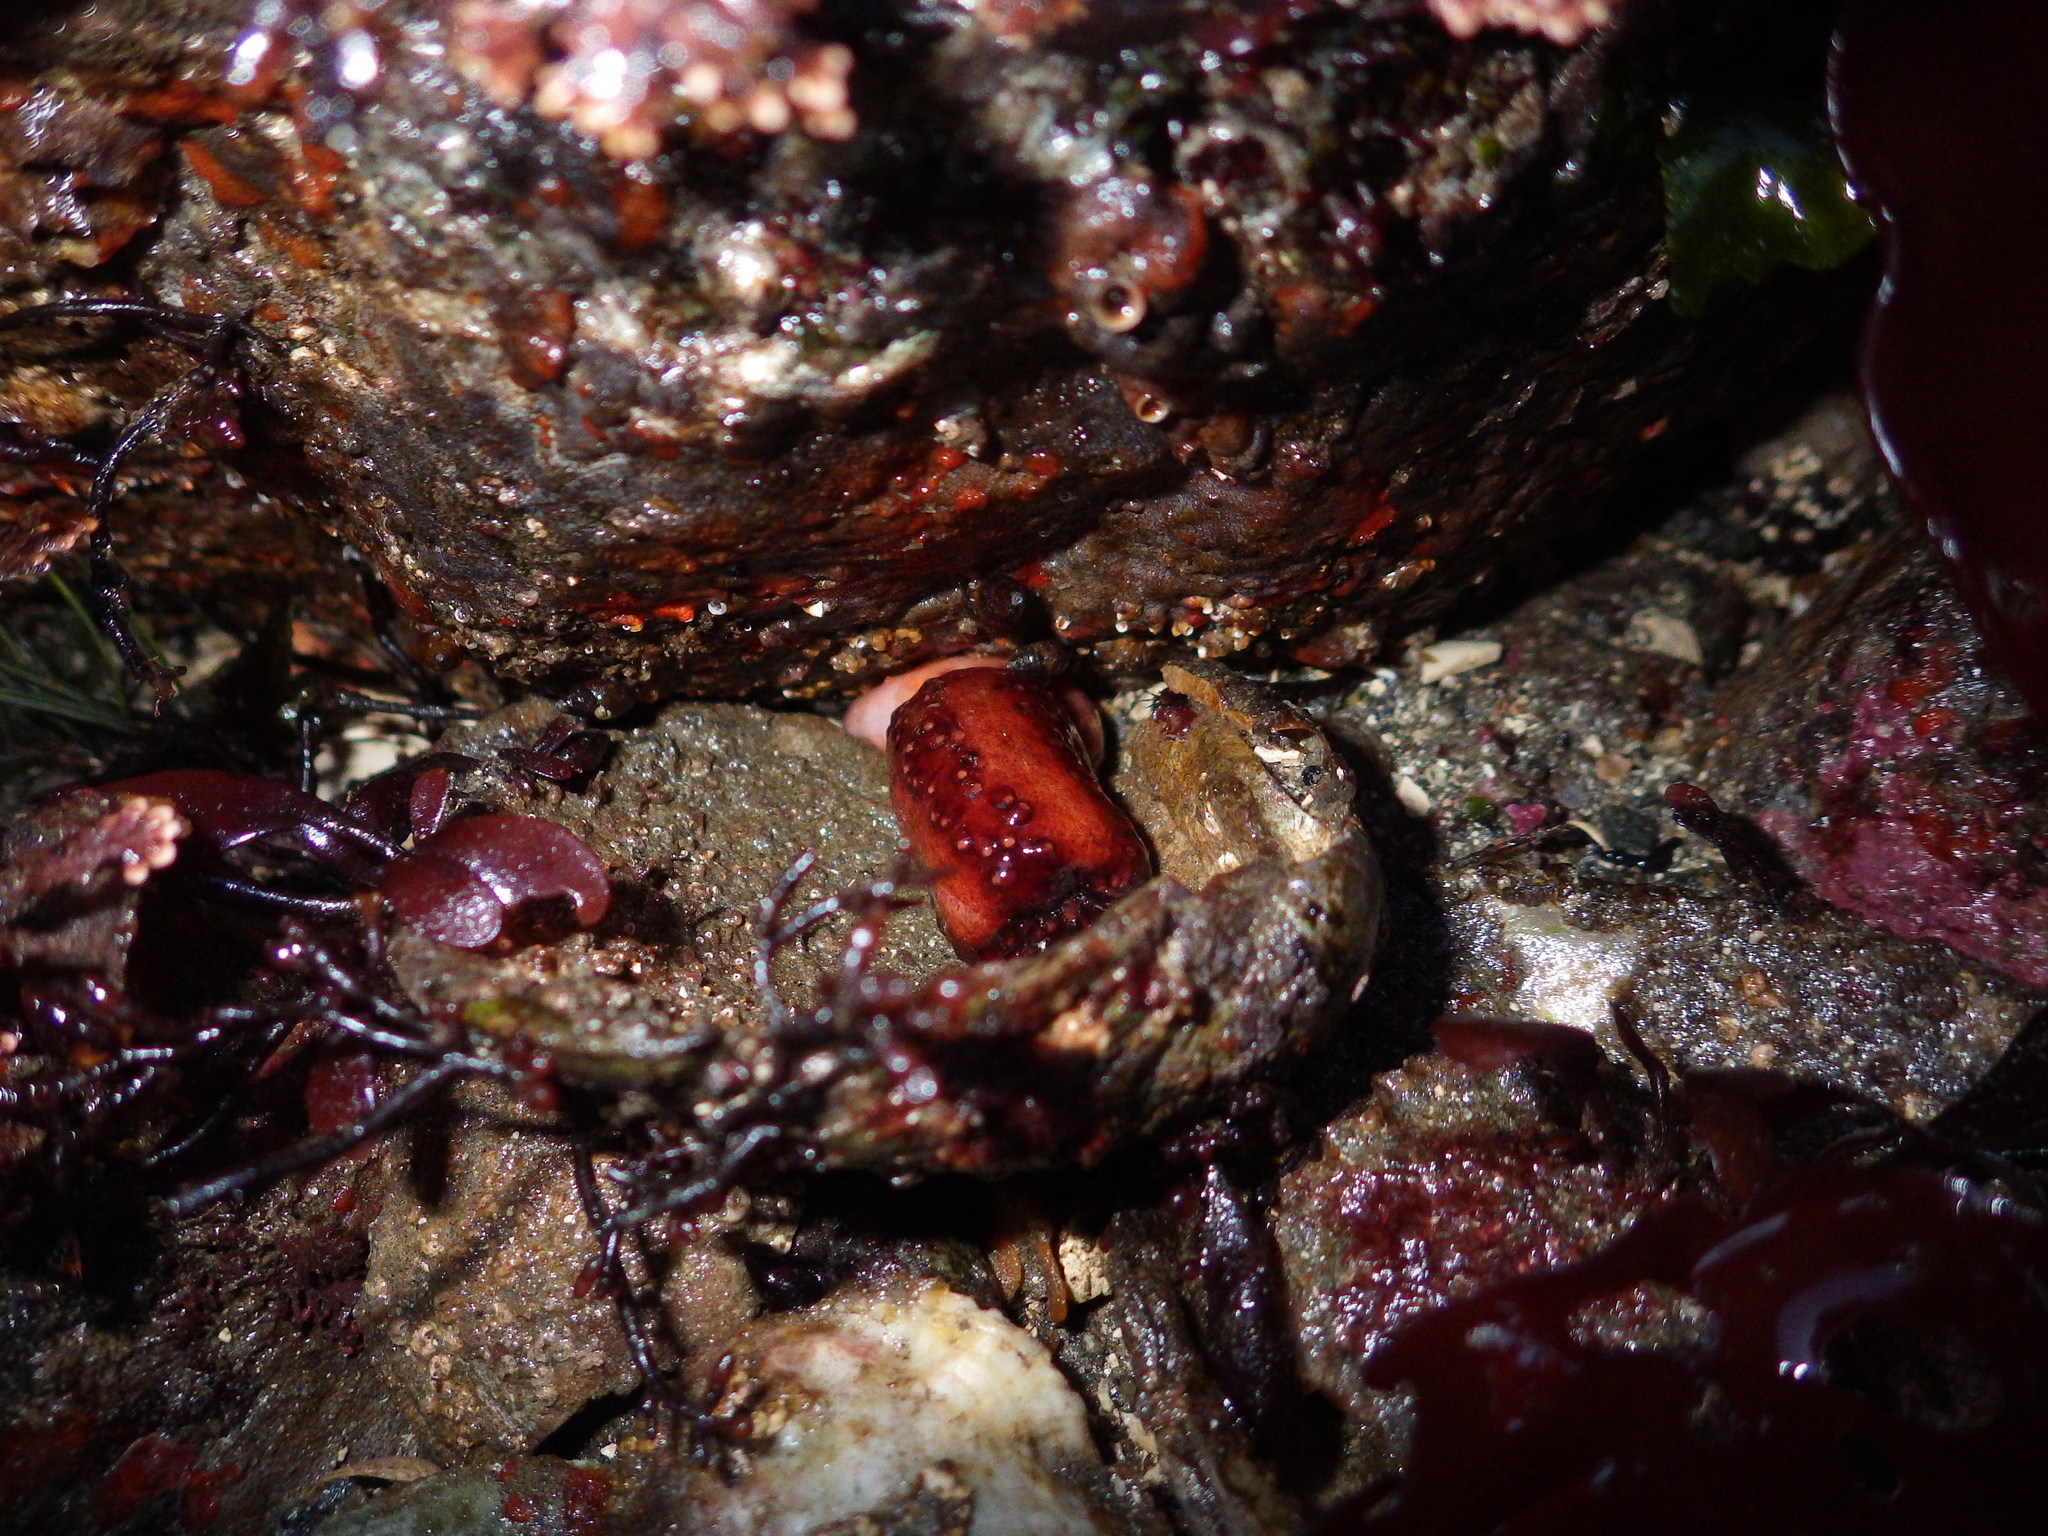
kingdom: Animalia
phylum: Echinodermata
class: Holothuroidea
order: Dendrochirotida
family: Cucumariidae
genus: Cucumaria
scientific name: Cucumaria miniata
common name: Orange sea cucumber
